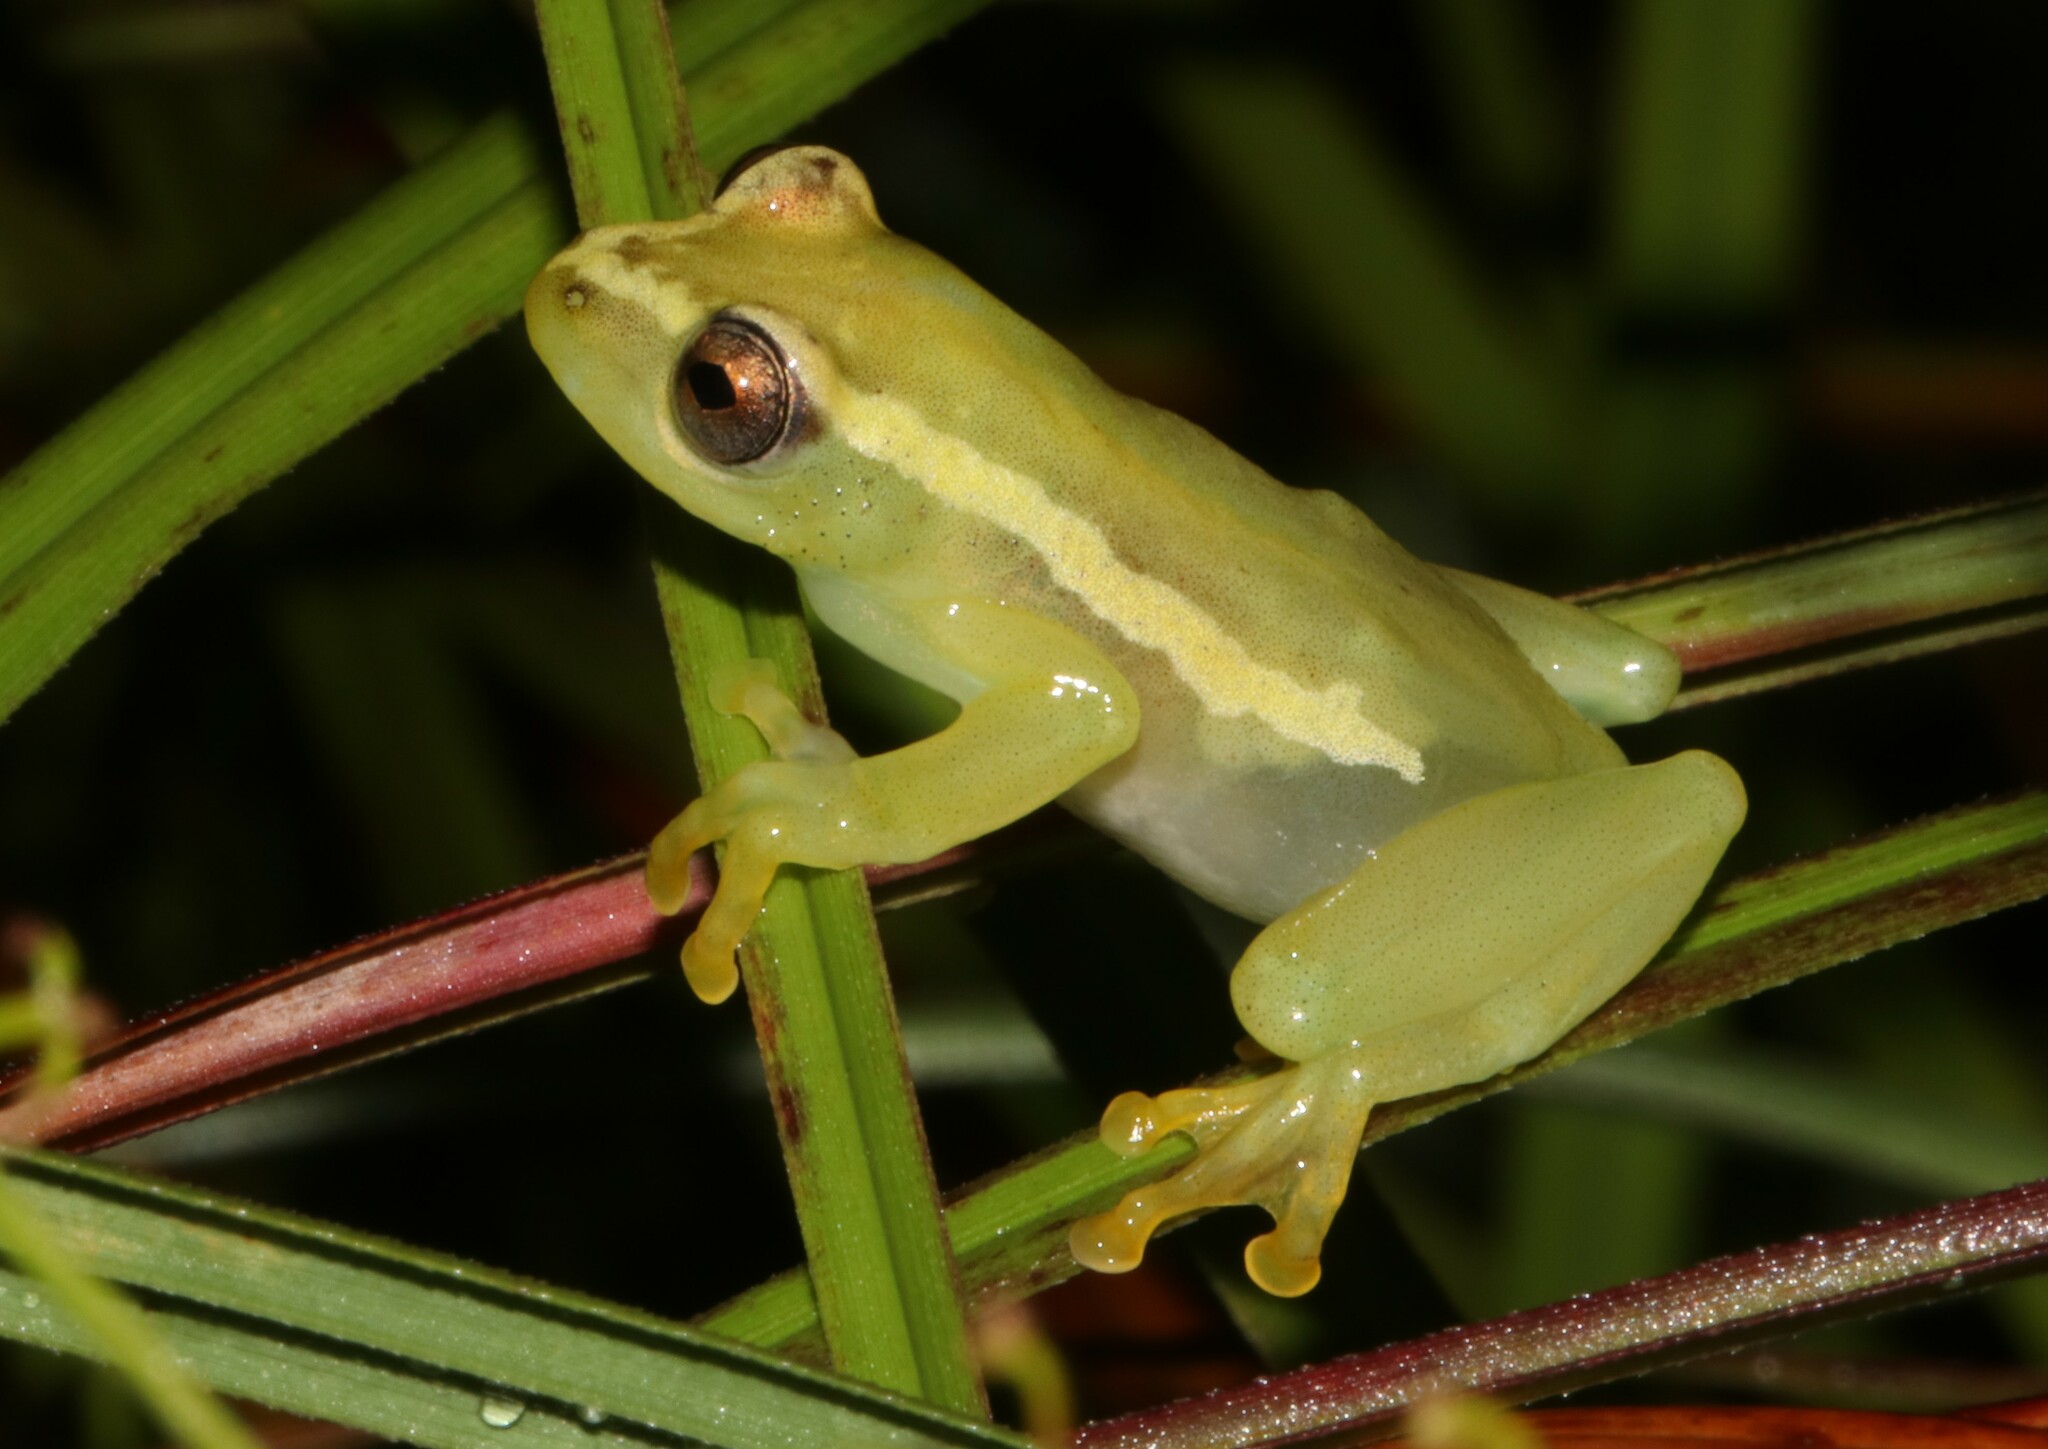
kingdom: Animalia
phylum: Chordata
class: Amphibia
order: Anura
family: Hyperoliidae
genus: Hyperolius
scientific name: Hyperolius davenporti
